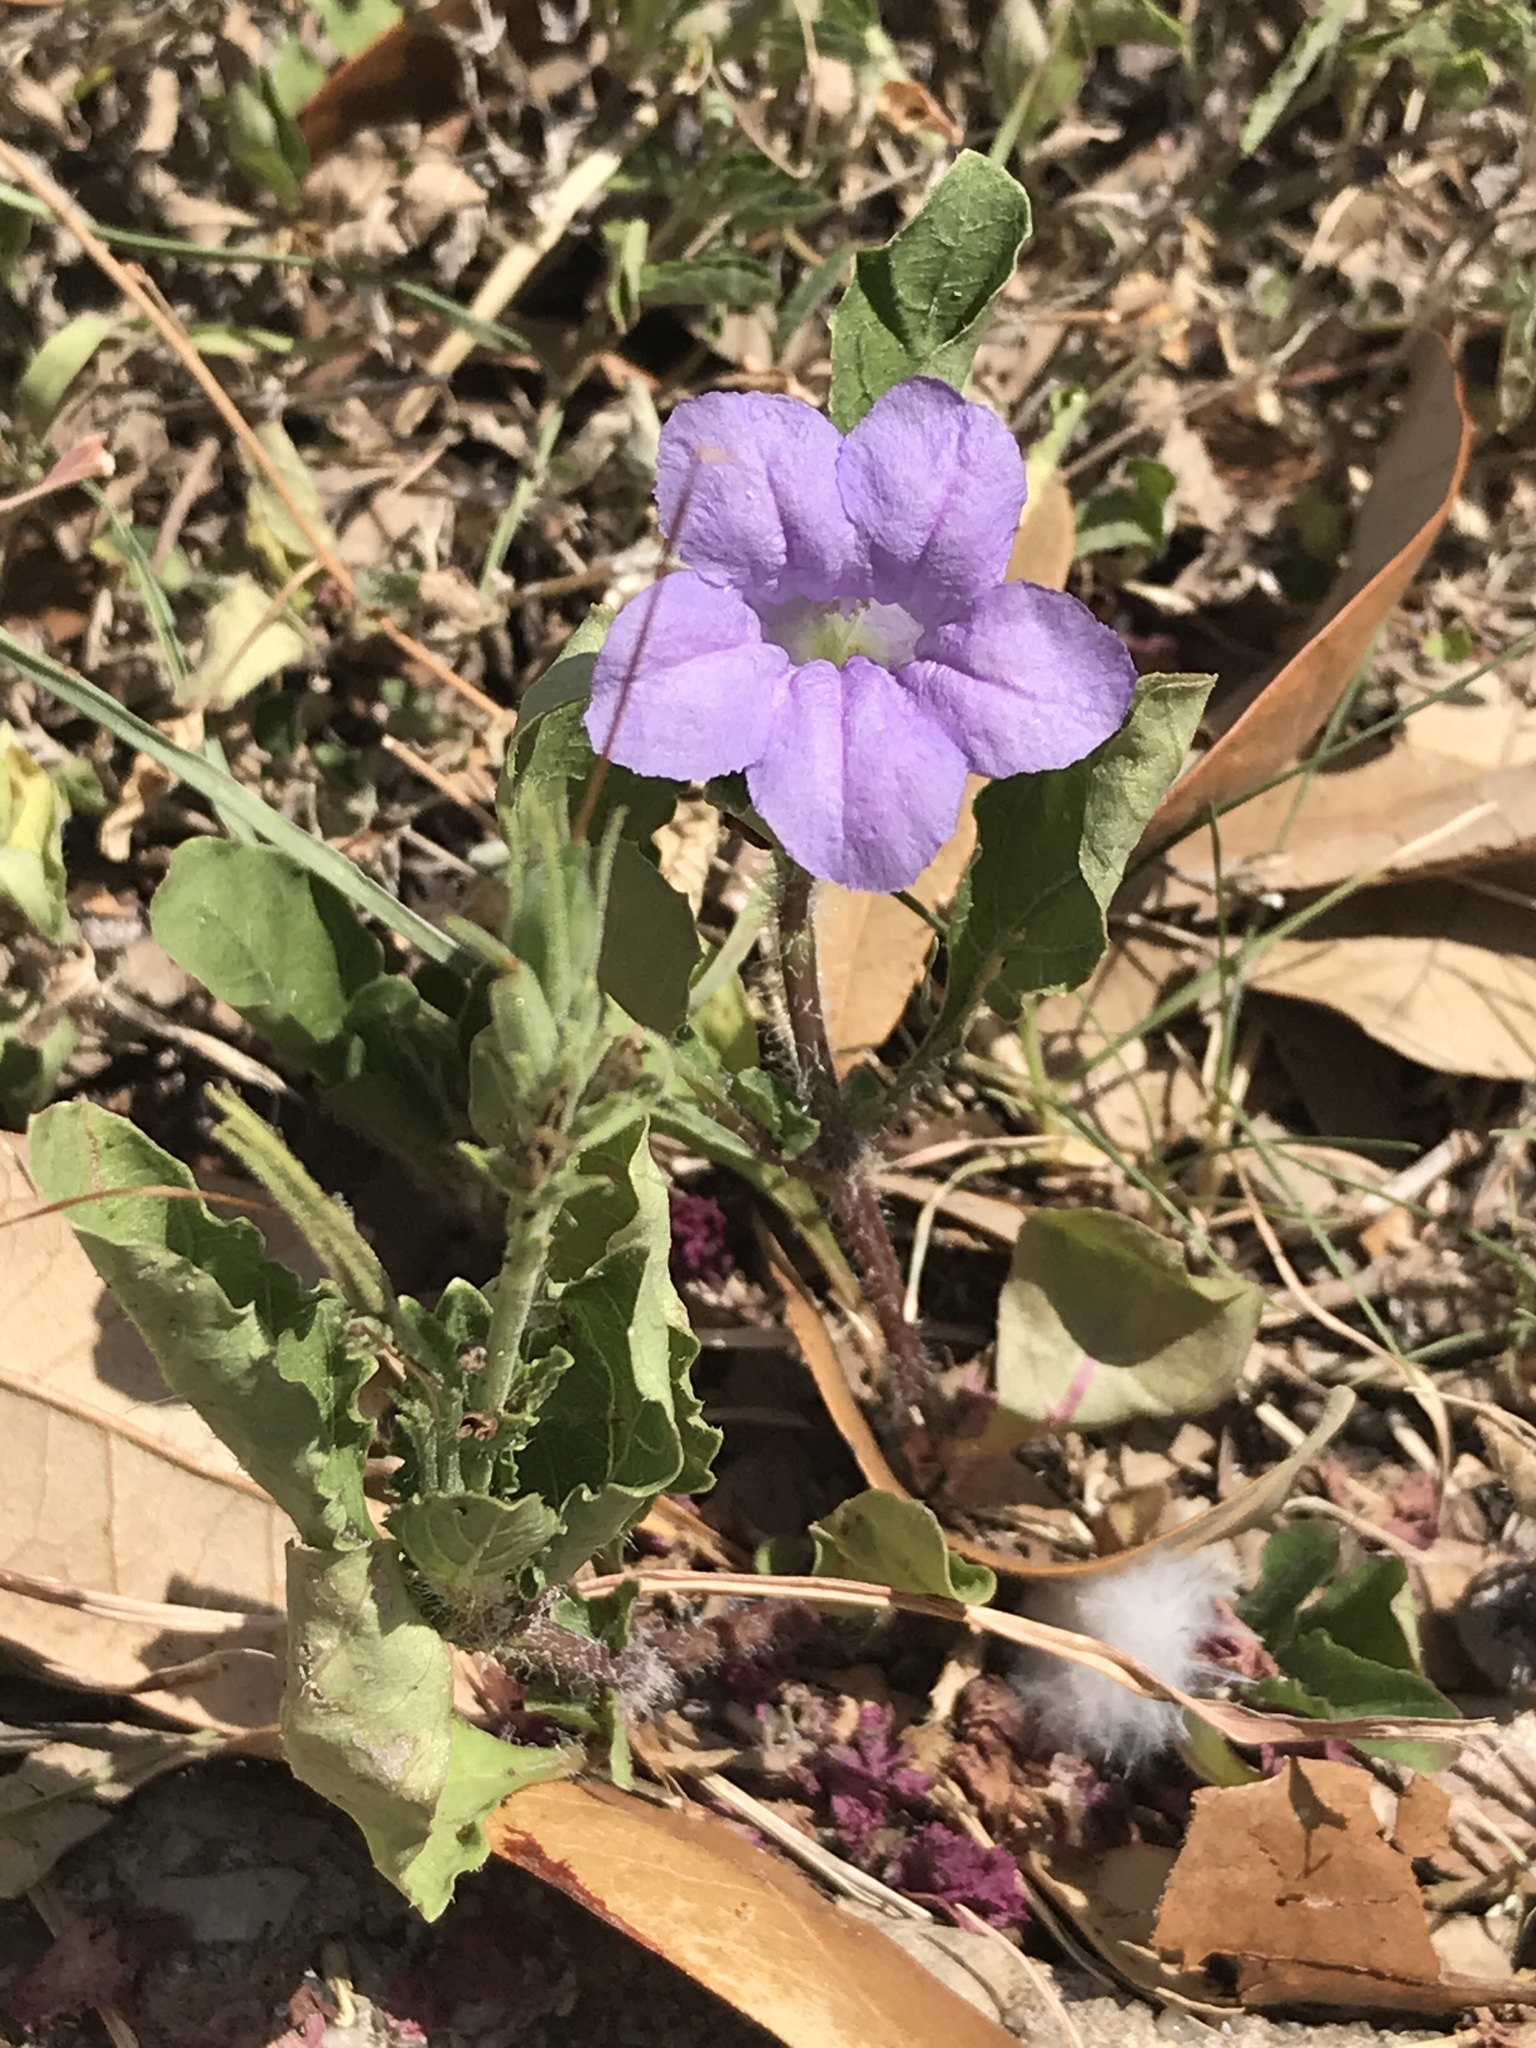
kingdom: Plantae
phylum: Tracheophyta
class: Magnoliopsida
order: Lamiales
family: Acanthaceae
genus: Ruellia
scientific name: Ruellia ciliatiflora
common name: Hairyflower wild petunia
